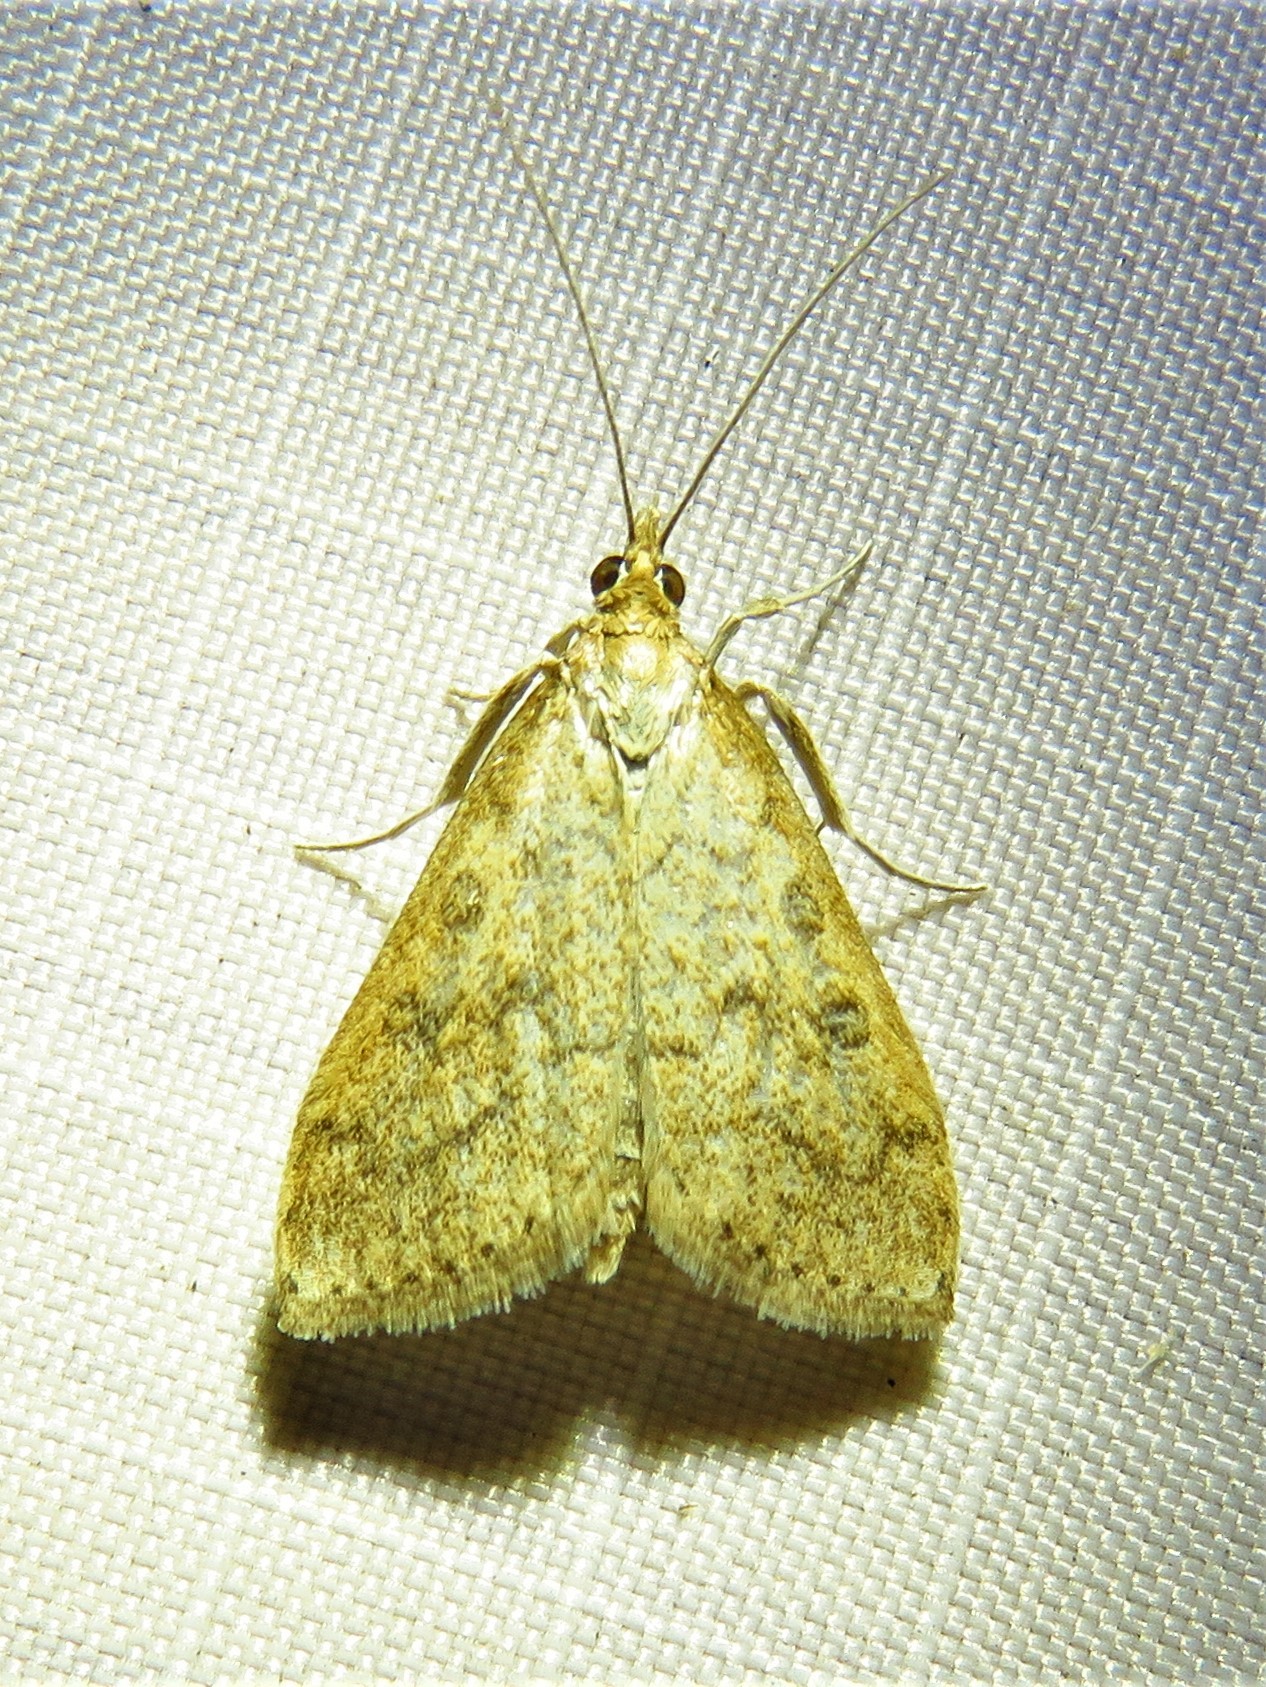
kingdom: Animalia
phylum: Arthropoda
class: Insecta
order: Lepidoptera
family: Crambidae
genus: Udea
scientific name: Udea rubigalis
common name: Celery leaftier moth
